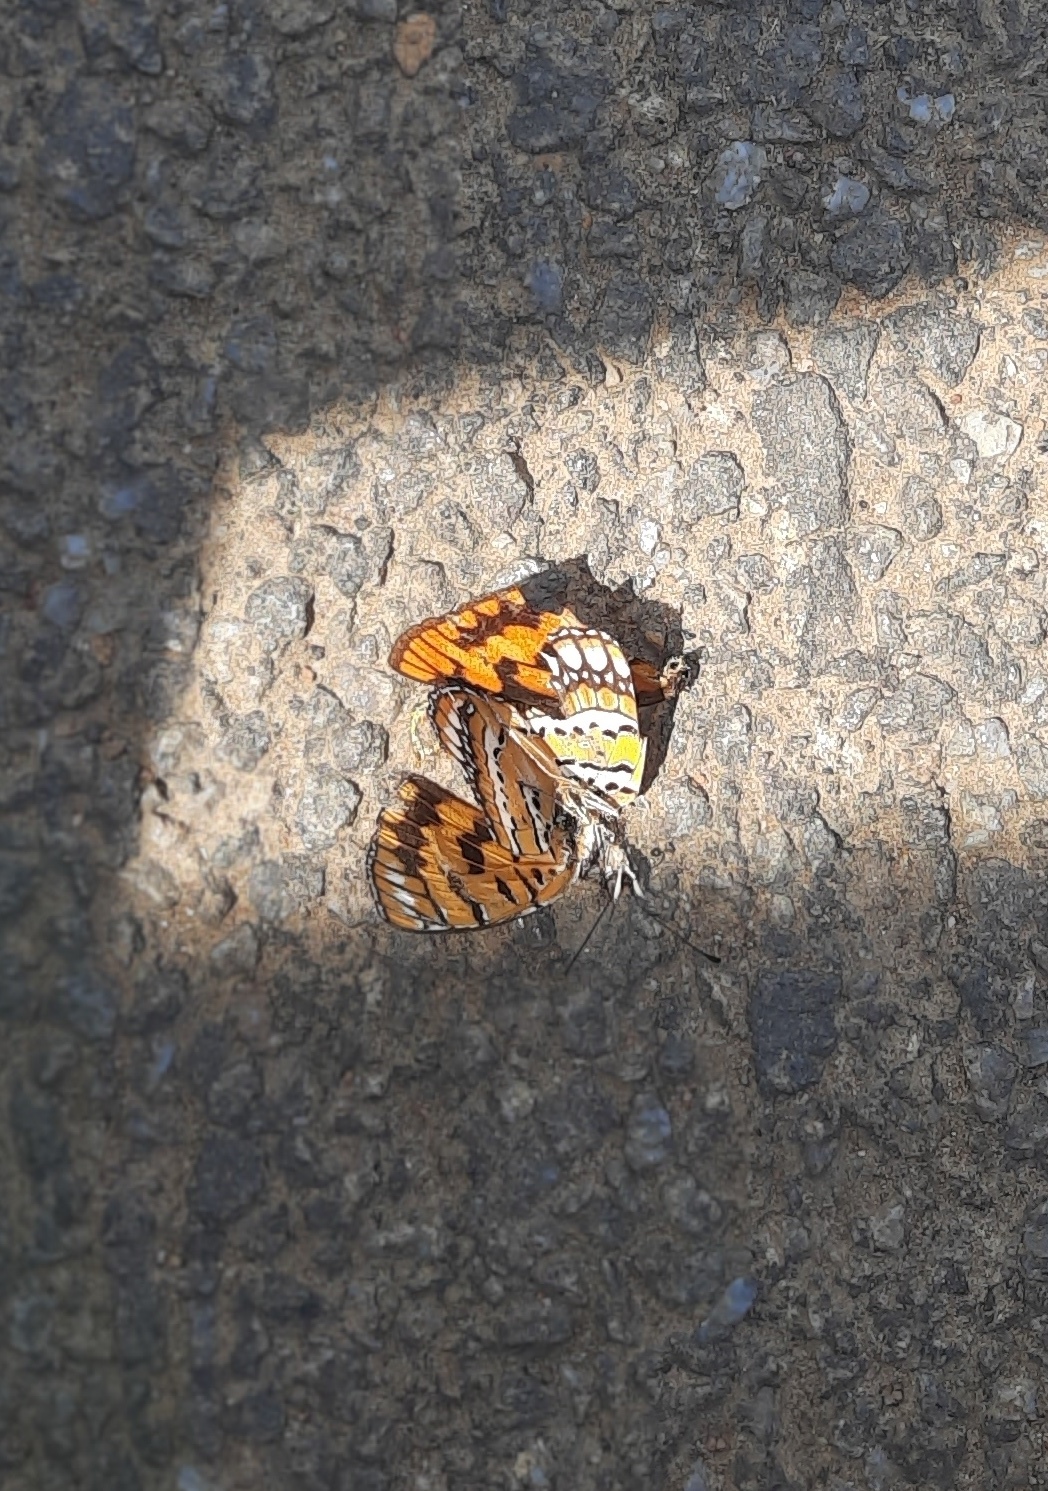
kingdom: Animalia
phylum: Arthropoda
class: Insecta
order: Lepidoptera
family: Nymphalidae
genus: Byblia
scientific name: Byblia ilithyia
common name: Spotted joker
